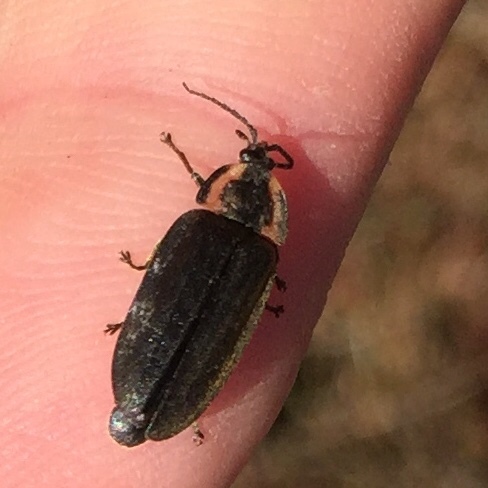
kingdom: Animalia
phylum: Arthropoda
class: Insecta
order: Coleoptera
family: Lampyridae
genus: Photinus
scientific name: Photinus corrusca
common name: Winter firefly
